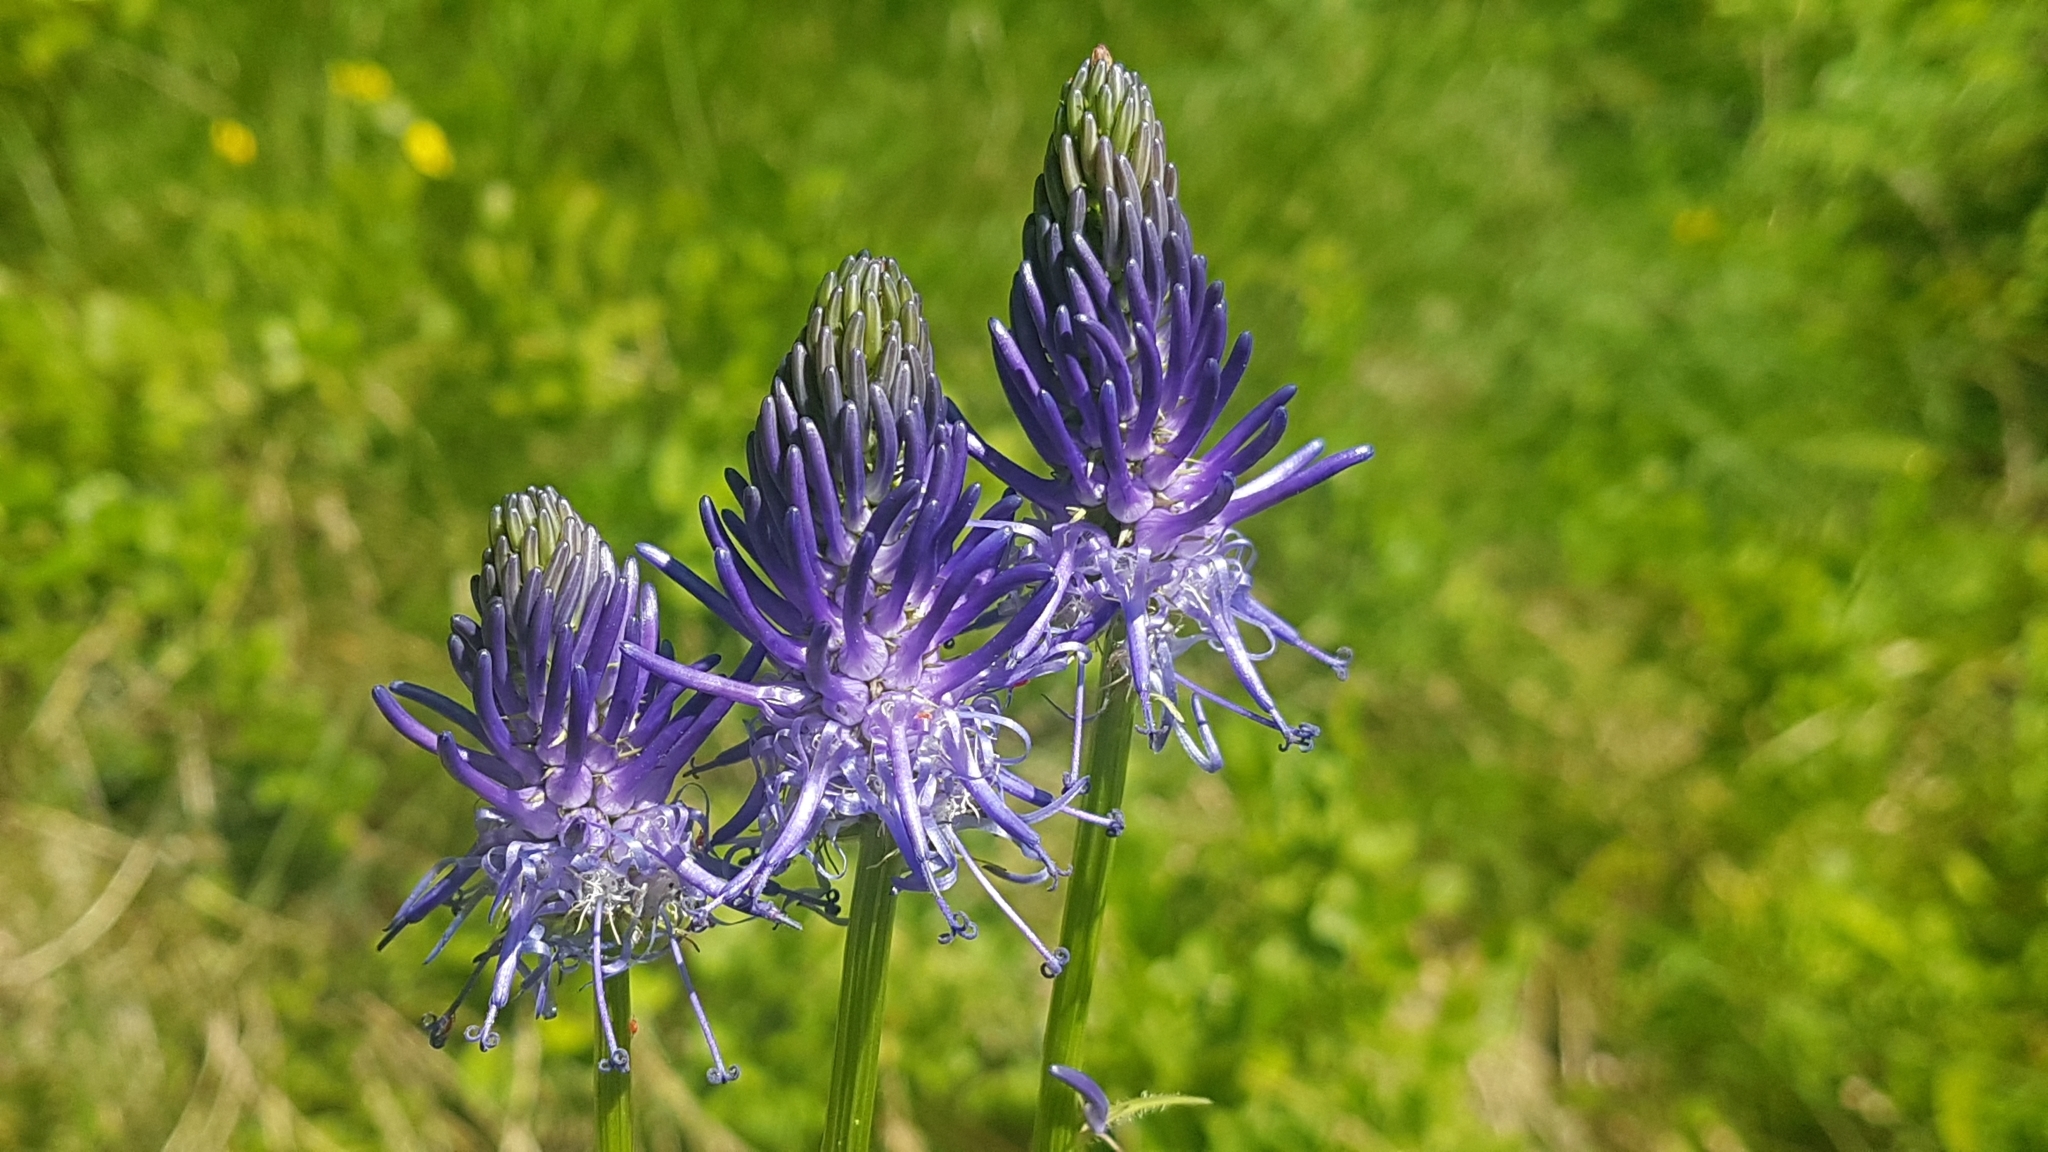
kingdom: Plantae
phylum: Tracheophyta
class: Magnoliopsida
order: Asterales
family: Campanulaceae
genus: Phyteuma
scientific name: Phyteuma betonicifolium
